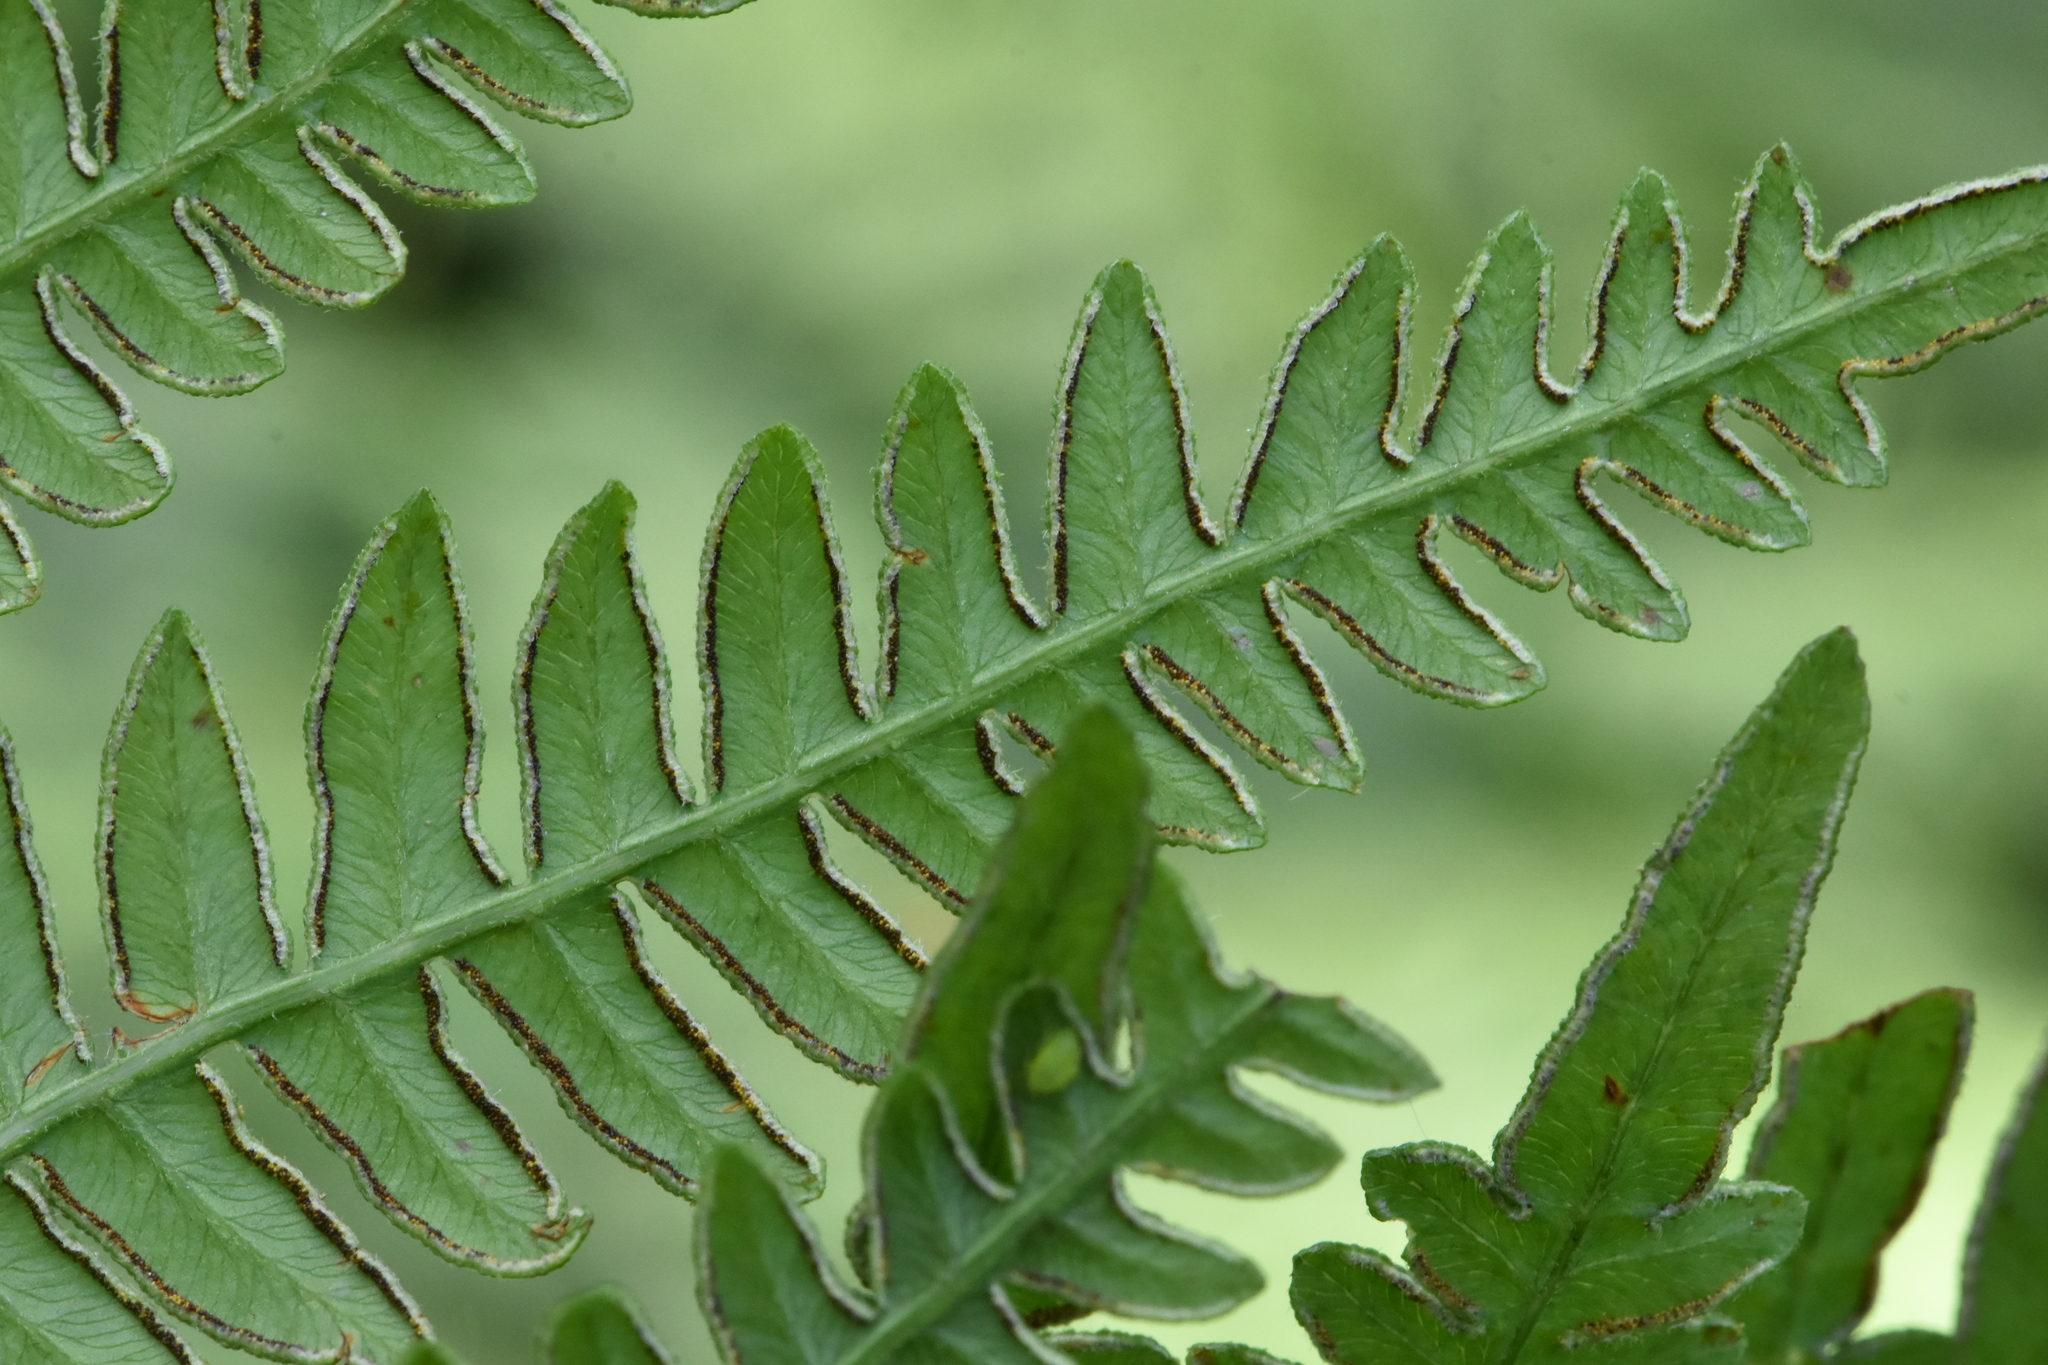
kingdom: Plantae
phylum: Tracheophyta
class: Polypodiopsida
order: Polypodiales
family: Dennstaedtiaceae
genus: Pteridium
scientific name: Pteridium aquilinum
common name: Bracken
